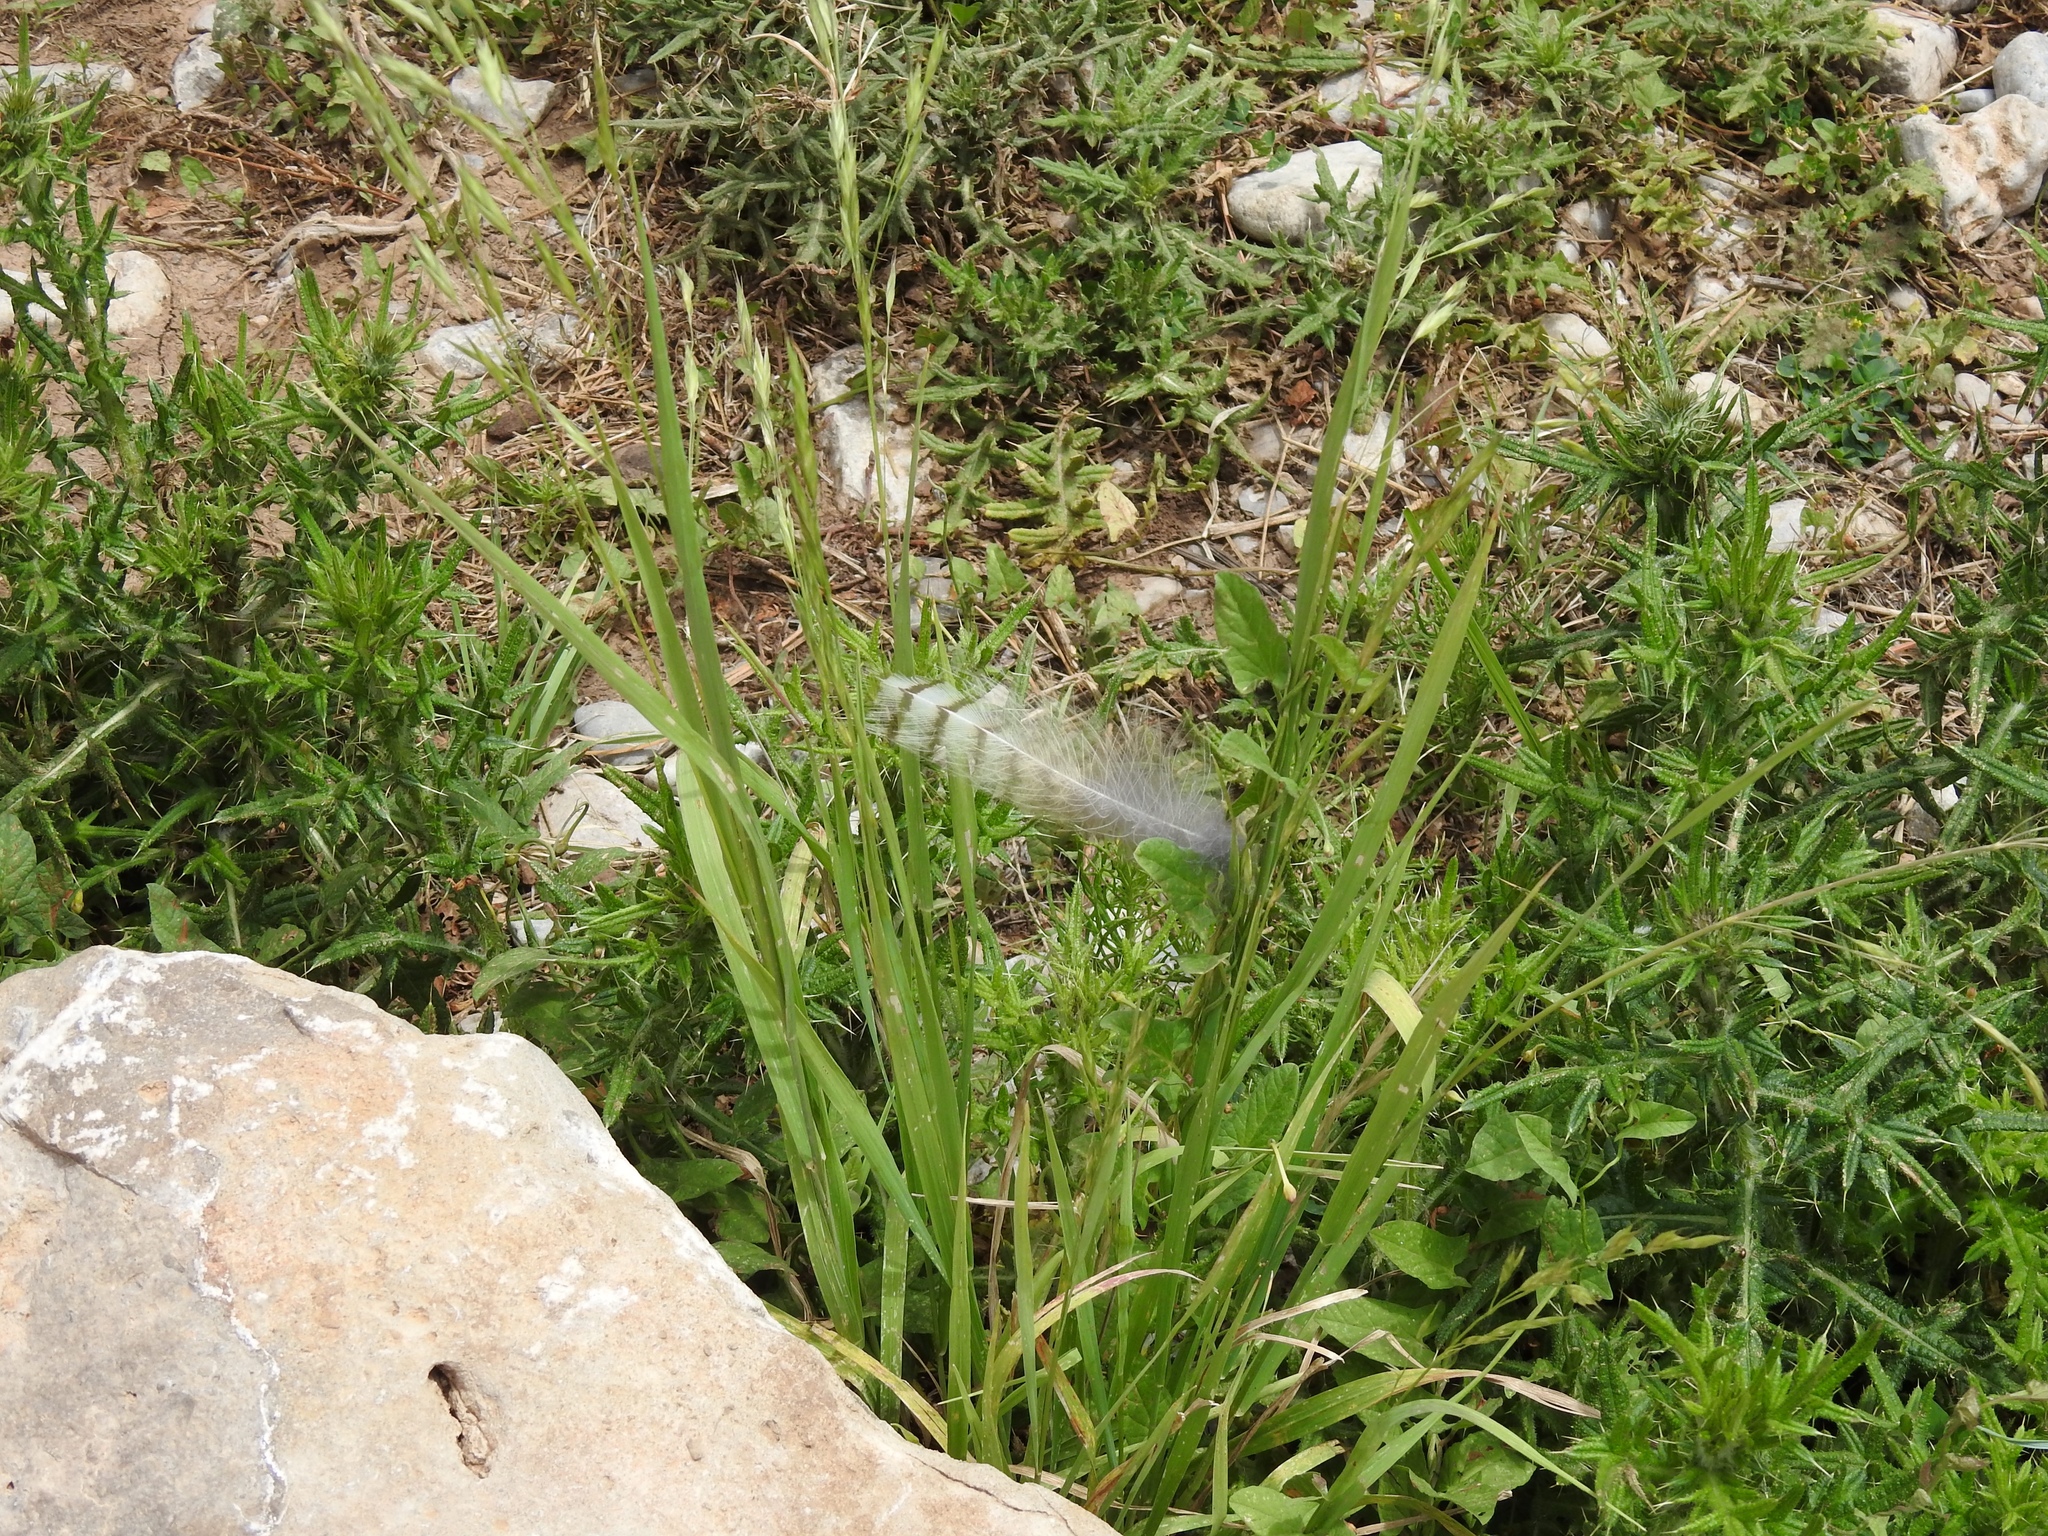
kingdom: Animalia
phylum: Chordata
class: Aves
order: Strigiformes
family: Strigidae
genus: Bubo
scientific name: Bubo virginianus
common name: Great horned owl
